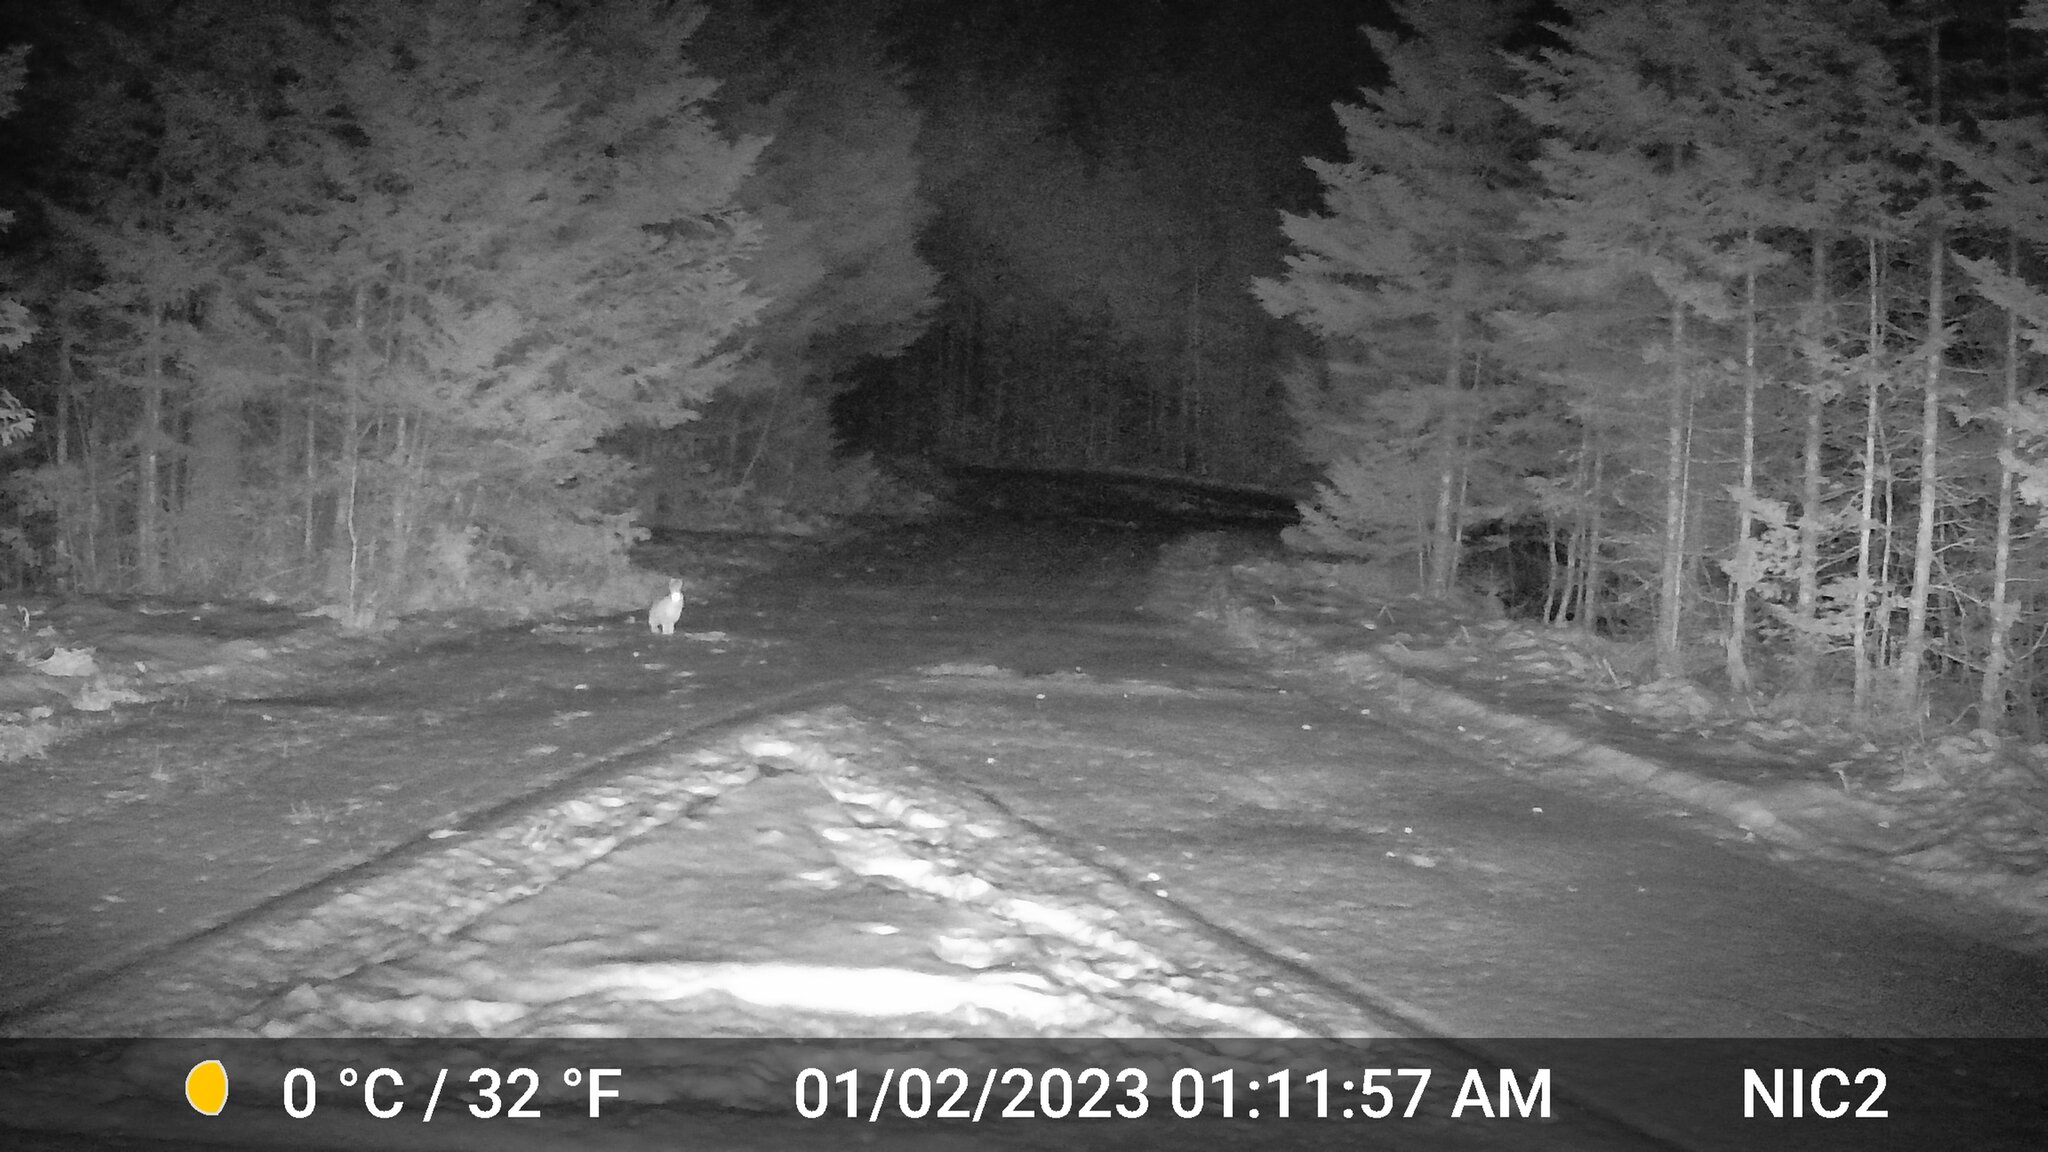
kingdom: Animalia
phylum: Chordata
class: Mammalia
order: Lagomorpha
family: Leporidae
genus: Lepus
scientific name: Lepus americanus
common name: Snowshoe hare
